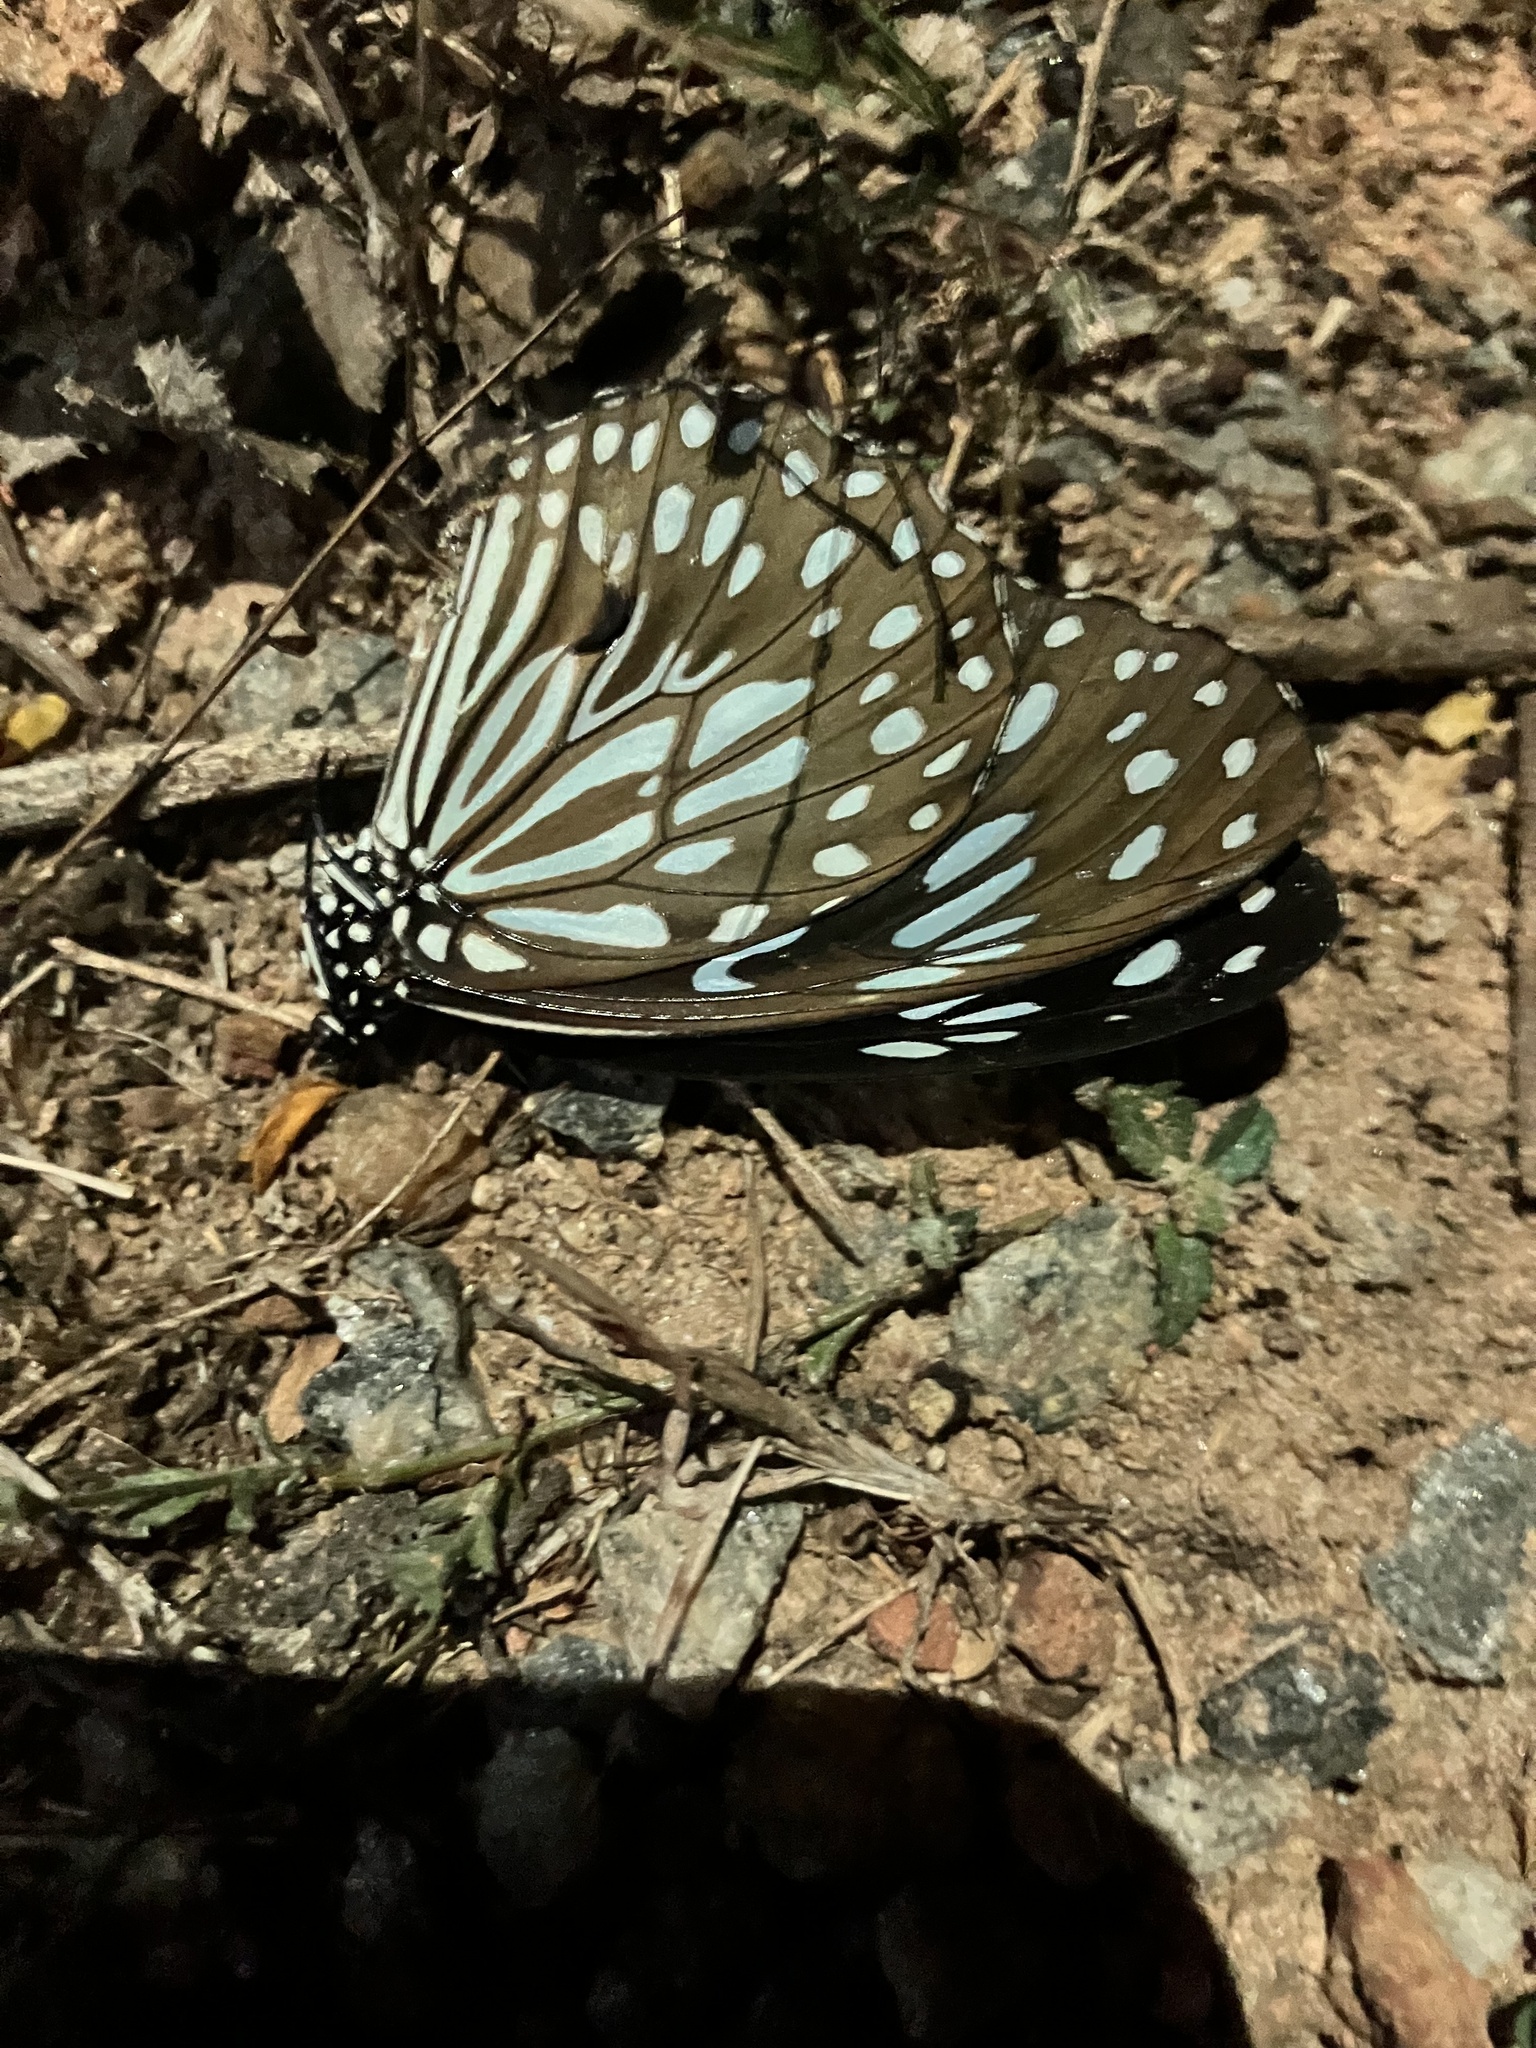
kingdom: Animalia
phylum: Arthropoda
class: Insecta
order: Lepidoptera
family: Nymphalidae
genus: Tirumala
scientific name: Tirumala septentrionis
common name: Dark blue tiger butterfly
